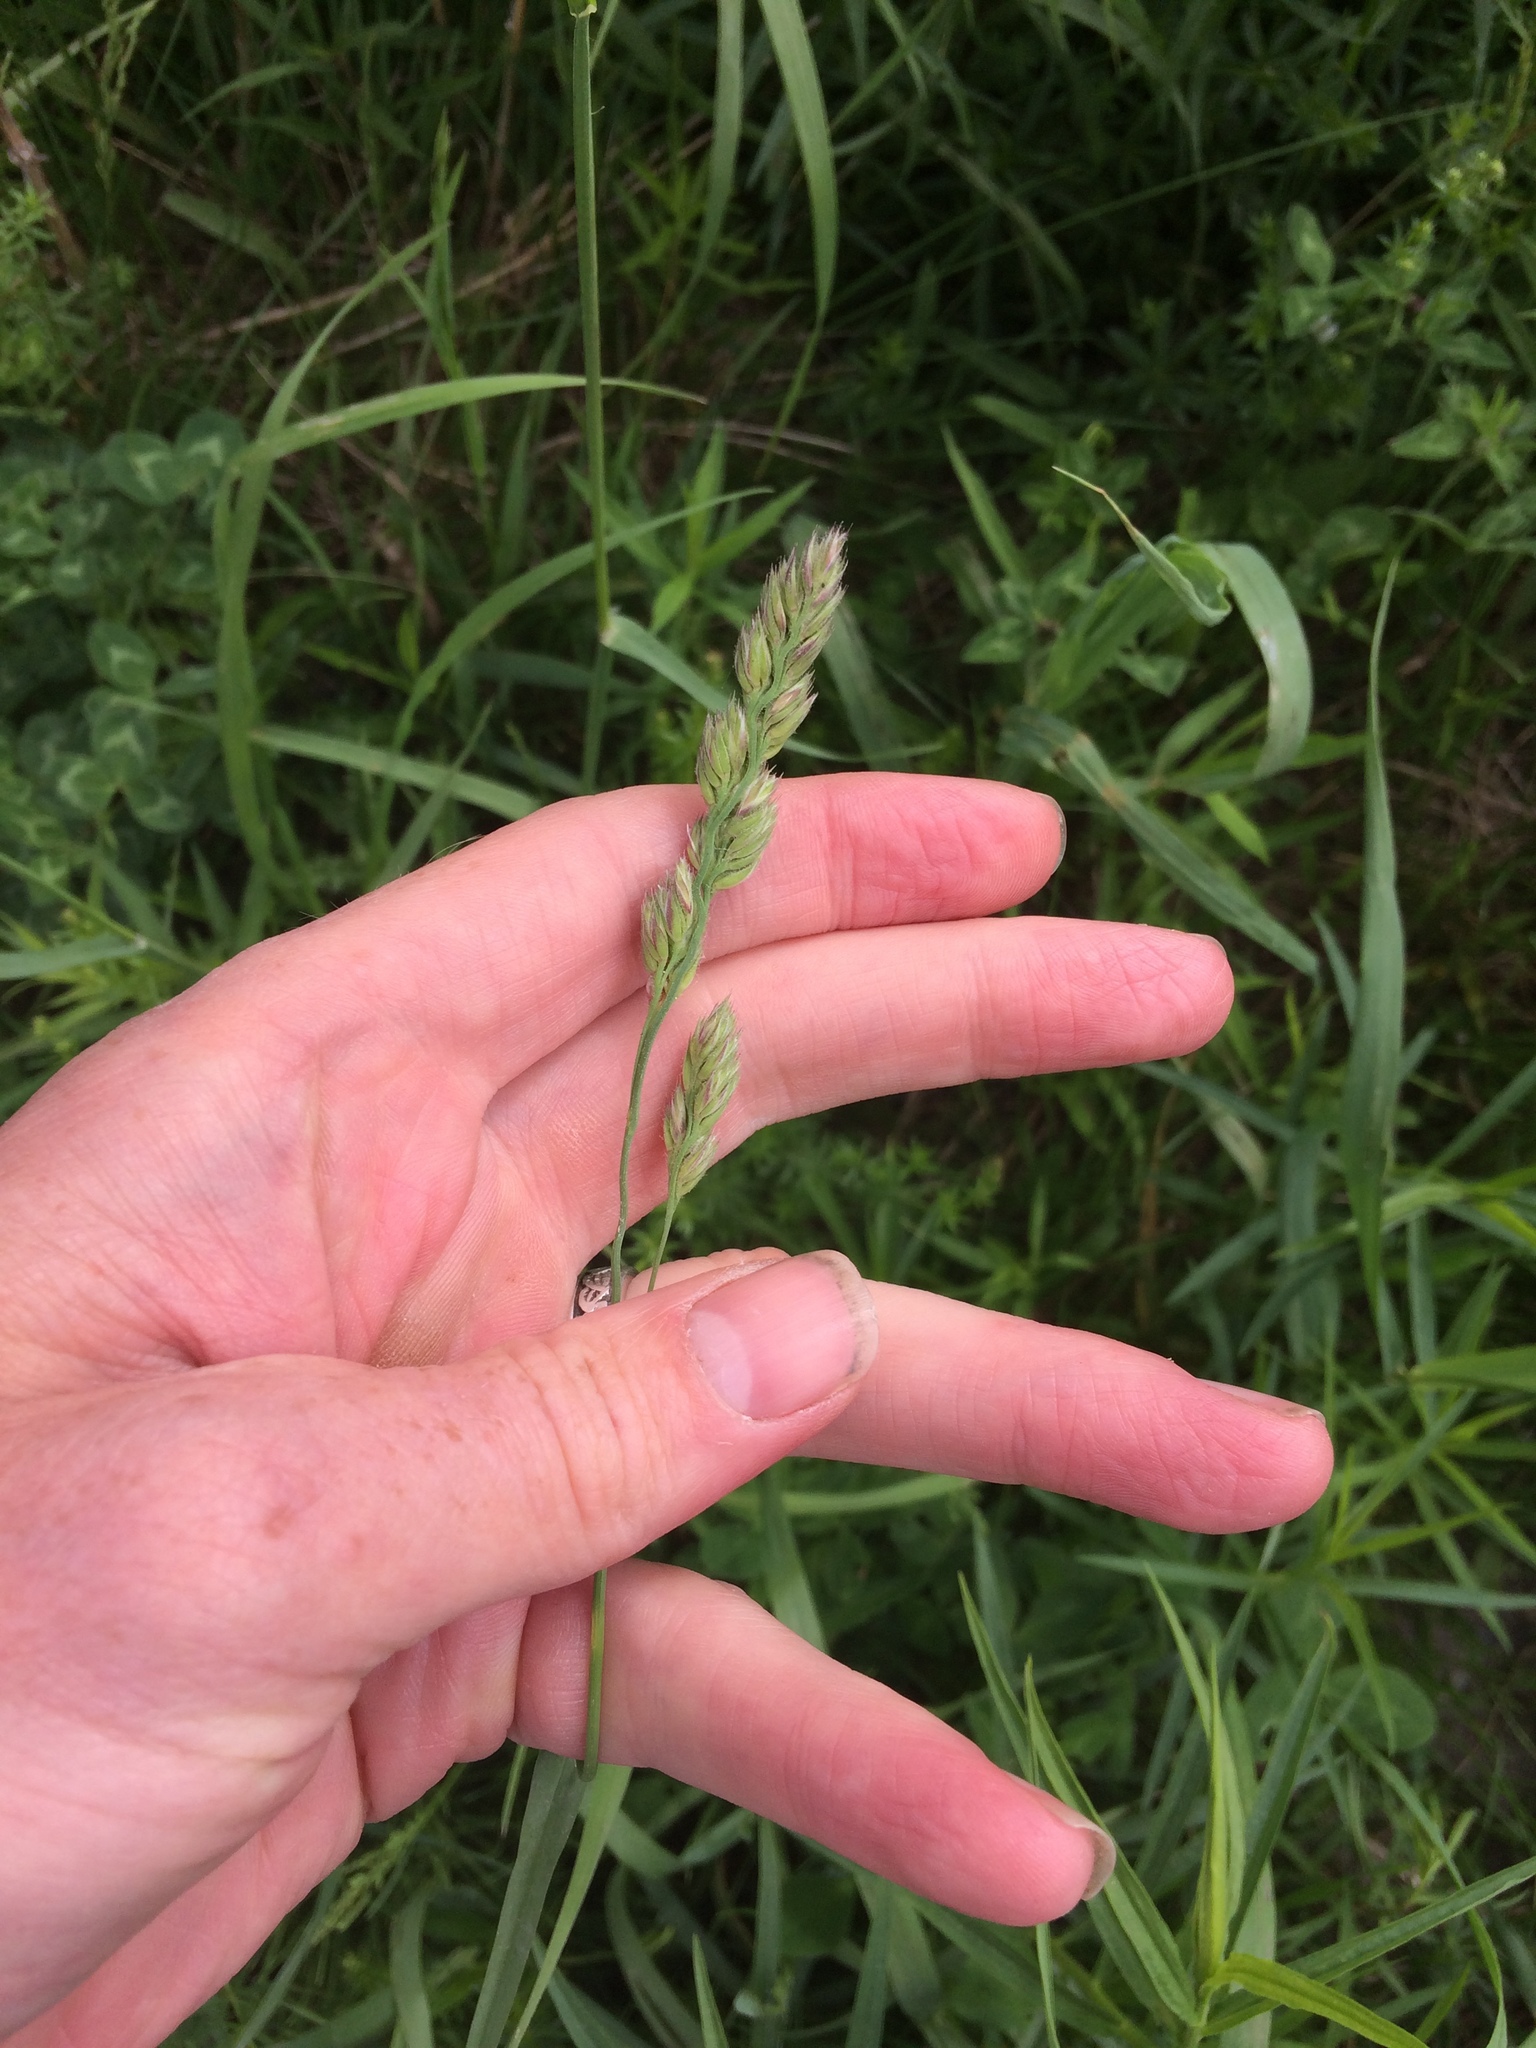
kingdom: Plantae
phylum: Tracheophyta
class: Liliopsida
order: Poales
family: Poaceae
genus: Dactylis
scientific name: Dactylis glomerata
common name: Orchardgrass
